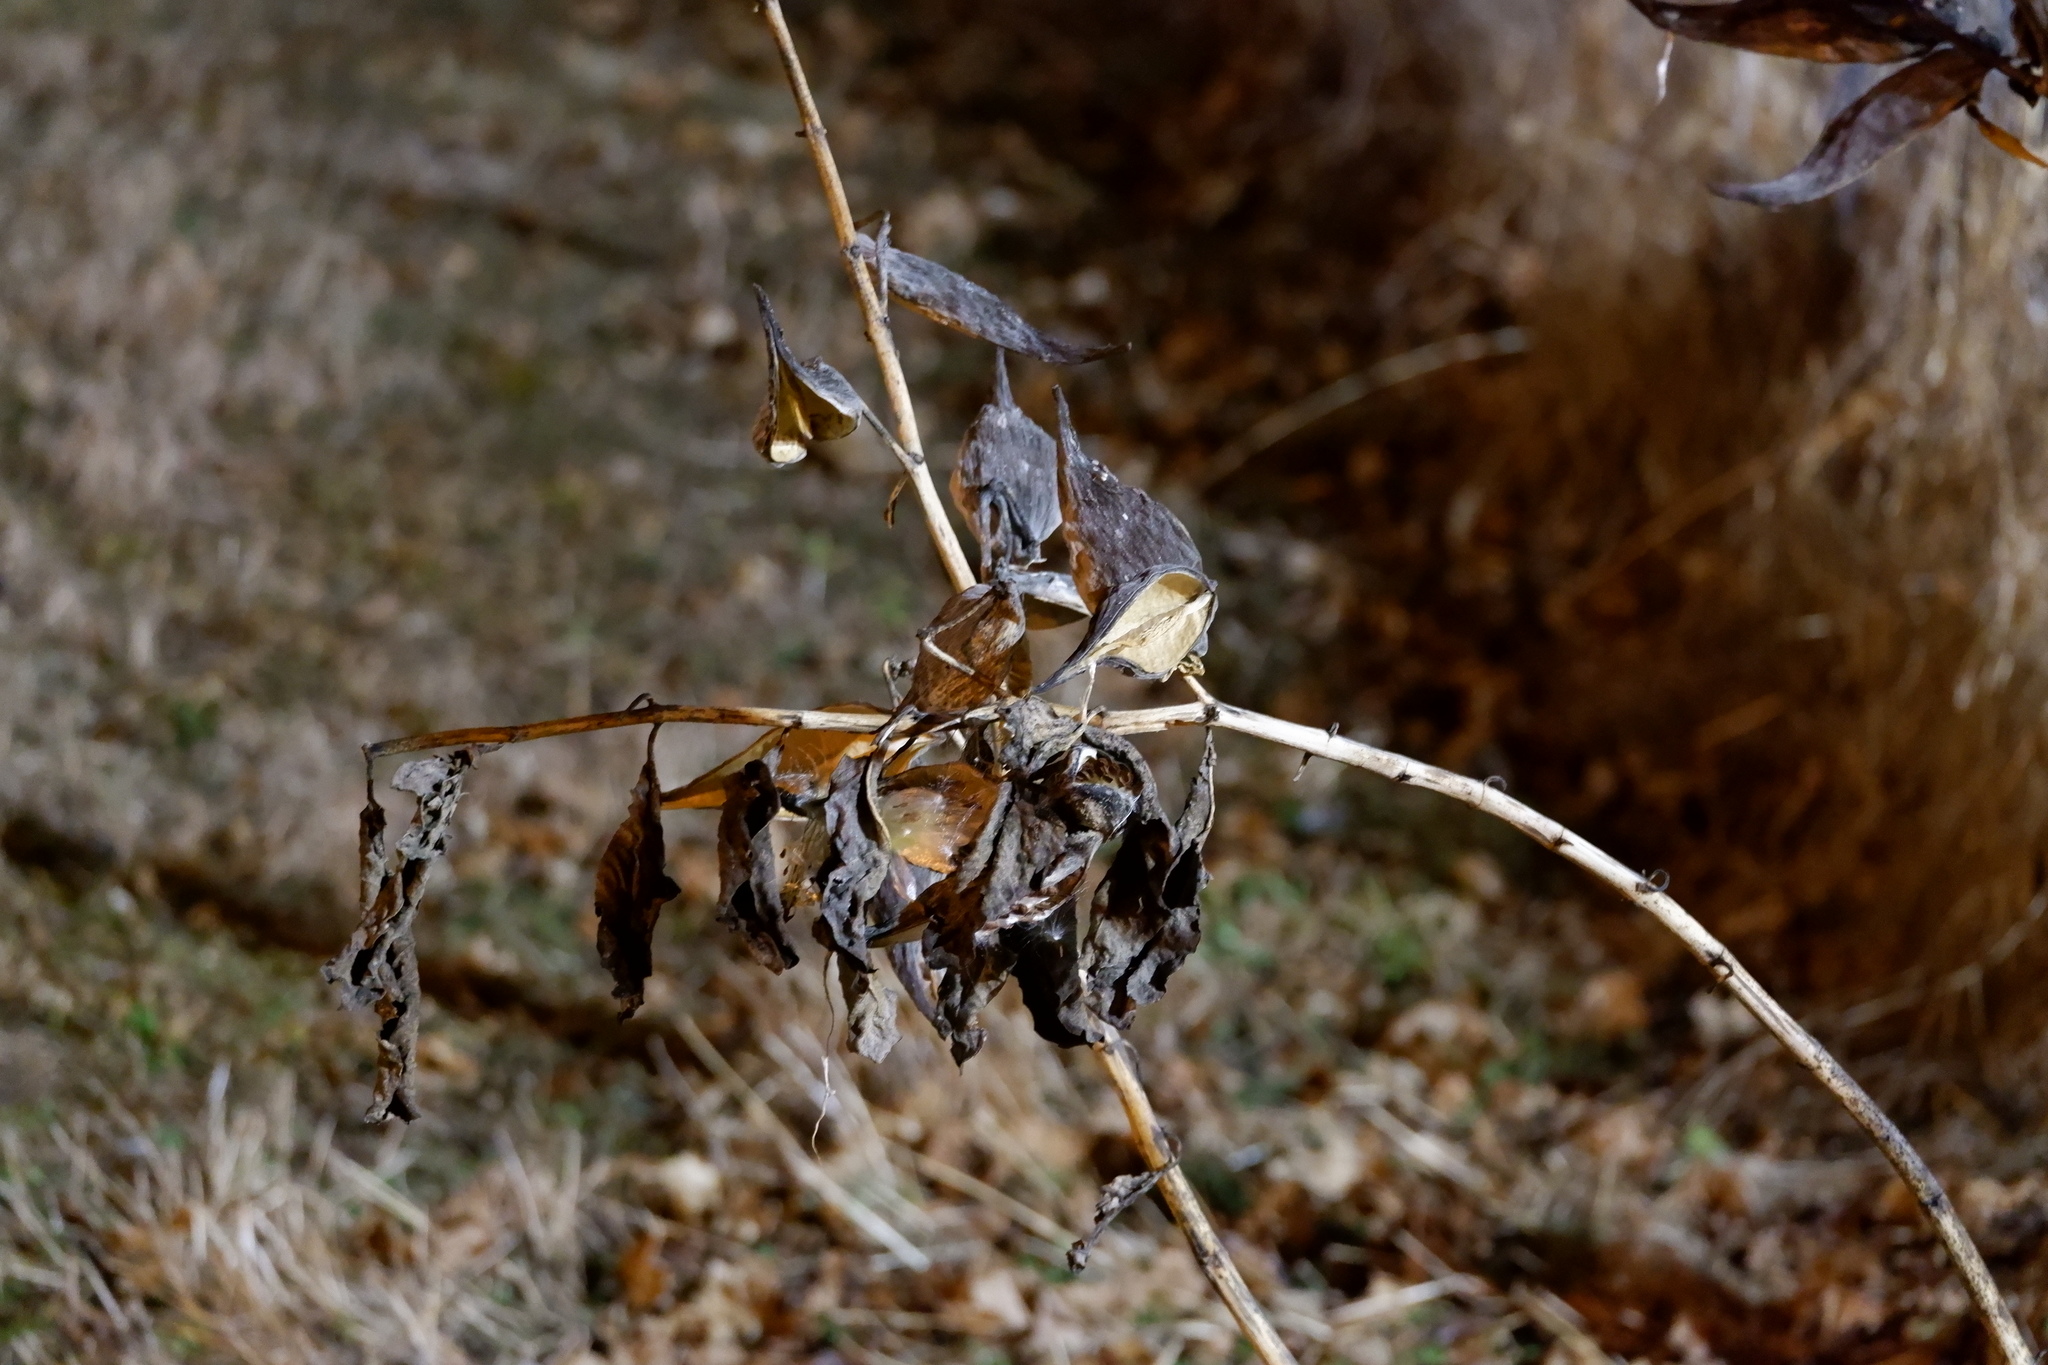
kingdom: Plantae
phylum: Tracheophyta
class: Magnoliopsida
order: Gentianales
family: Apocynaceae
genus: Asclepias
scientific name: Asclepias syriaca
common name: Common milkweed
